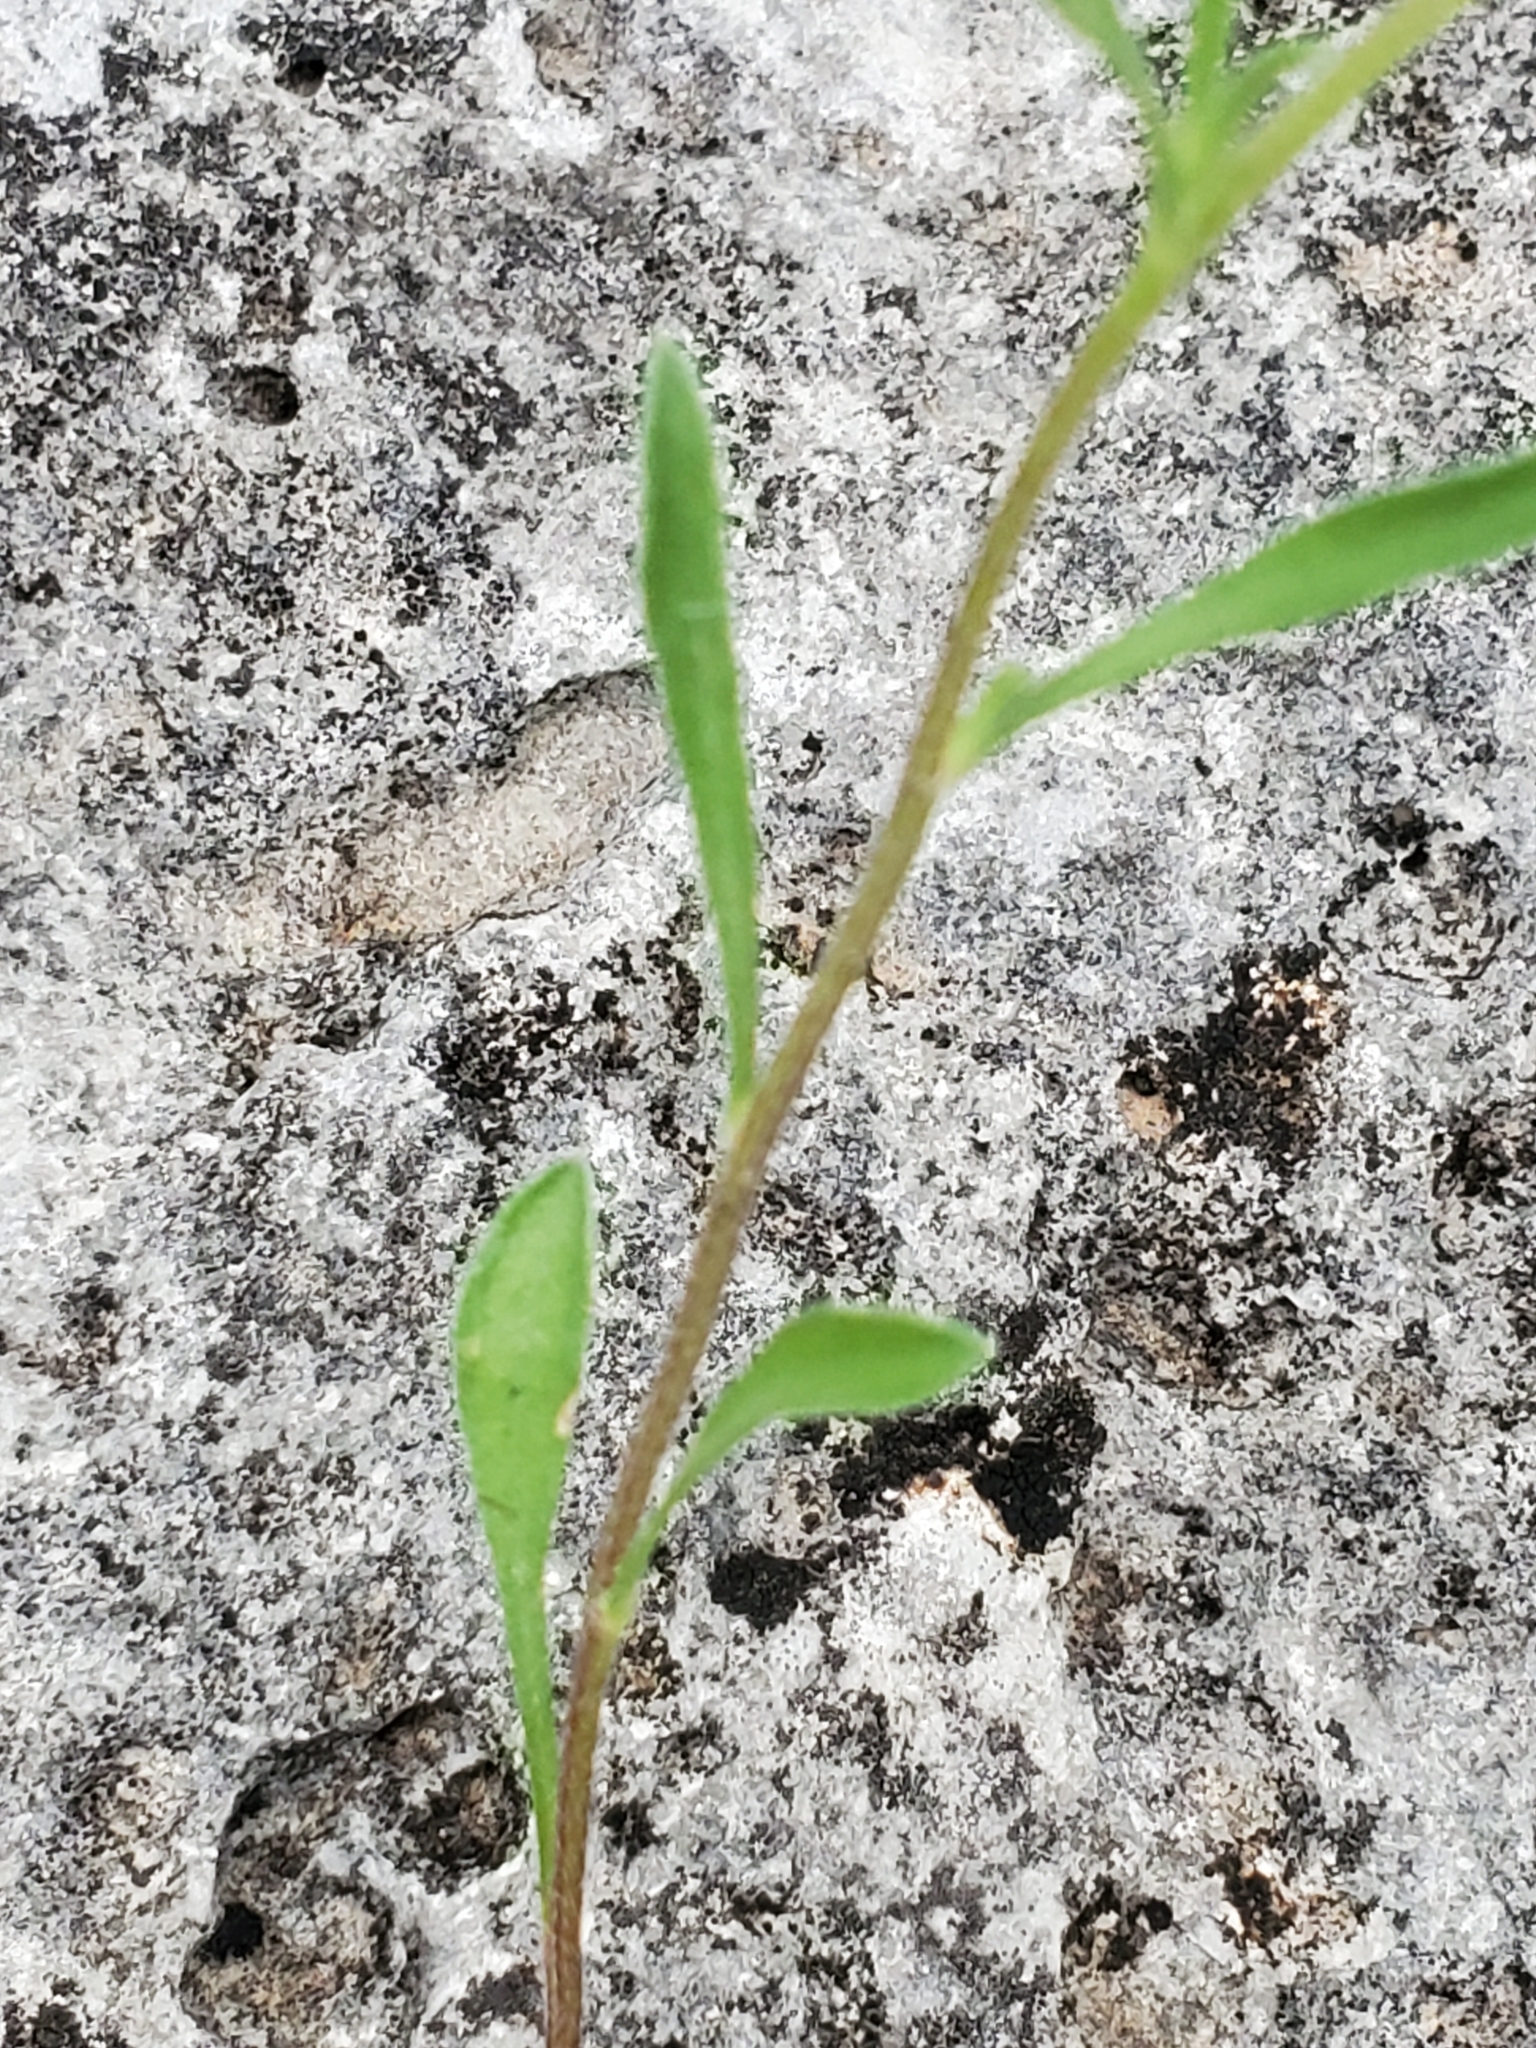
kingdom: Plantae
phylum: Tracheophyta
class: Magnoliopsida
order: Asterales
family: Asteraceae
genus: Erigeron
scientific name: Erigeron modestus
